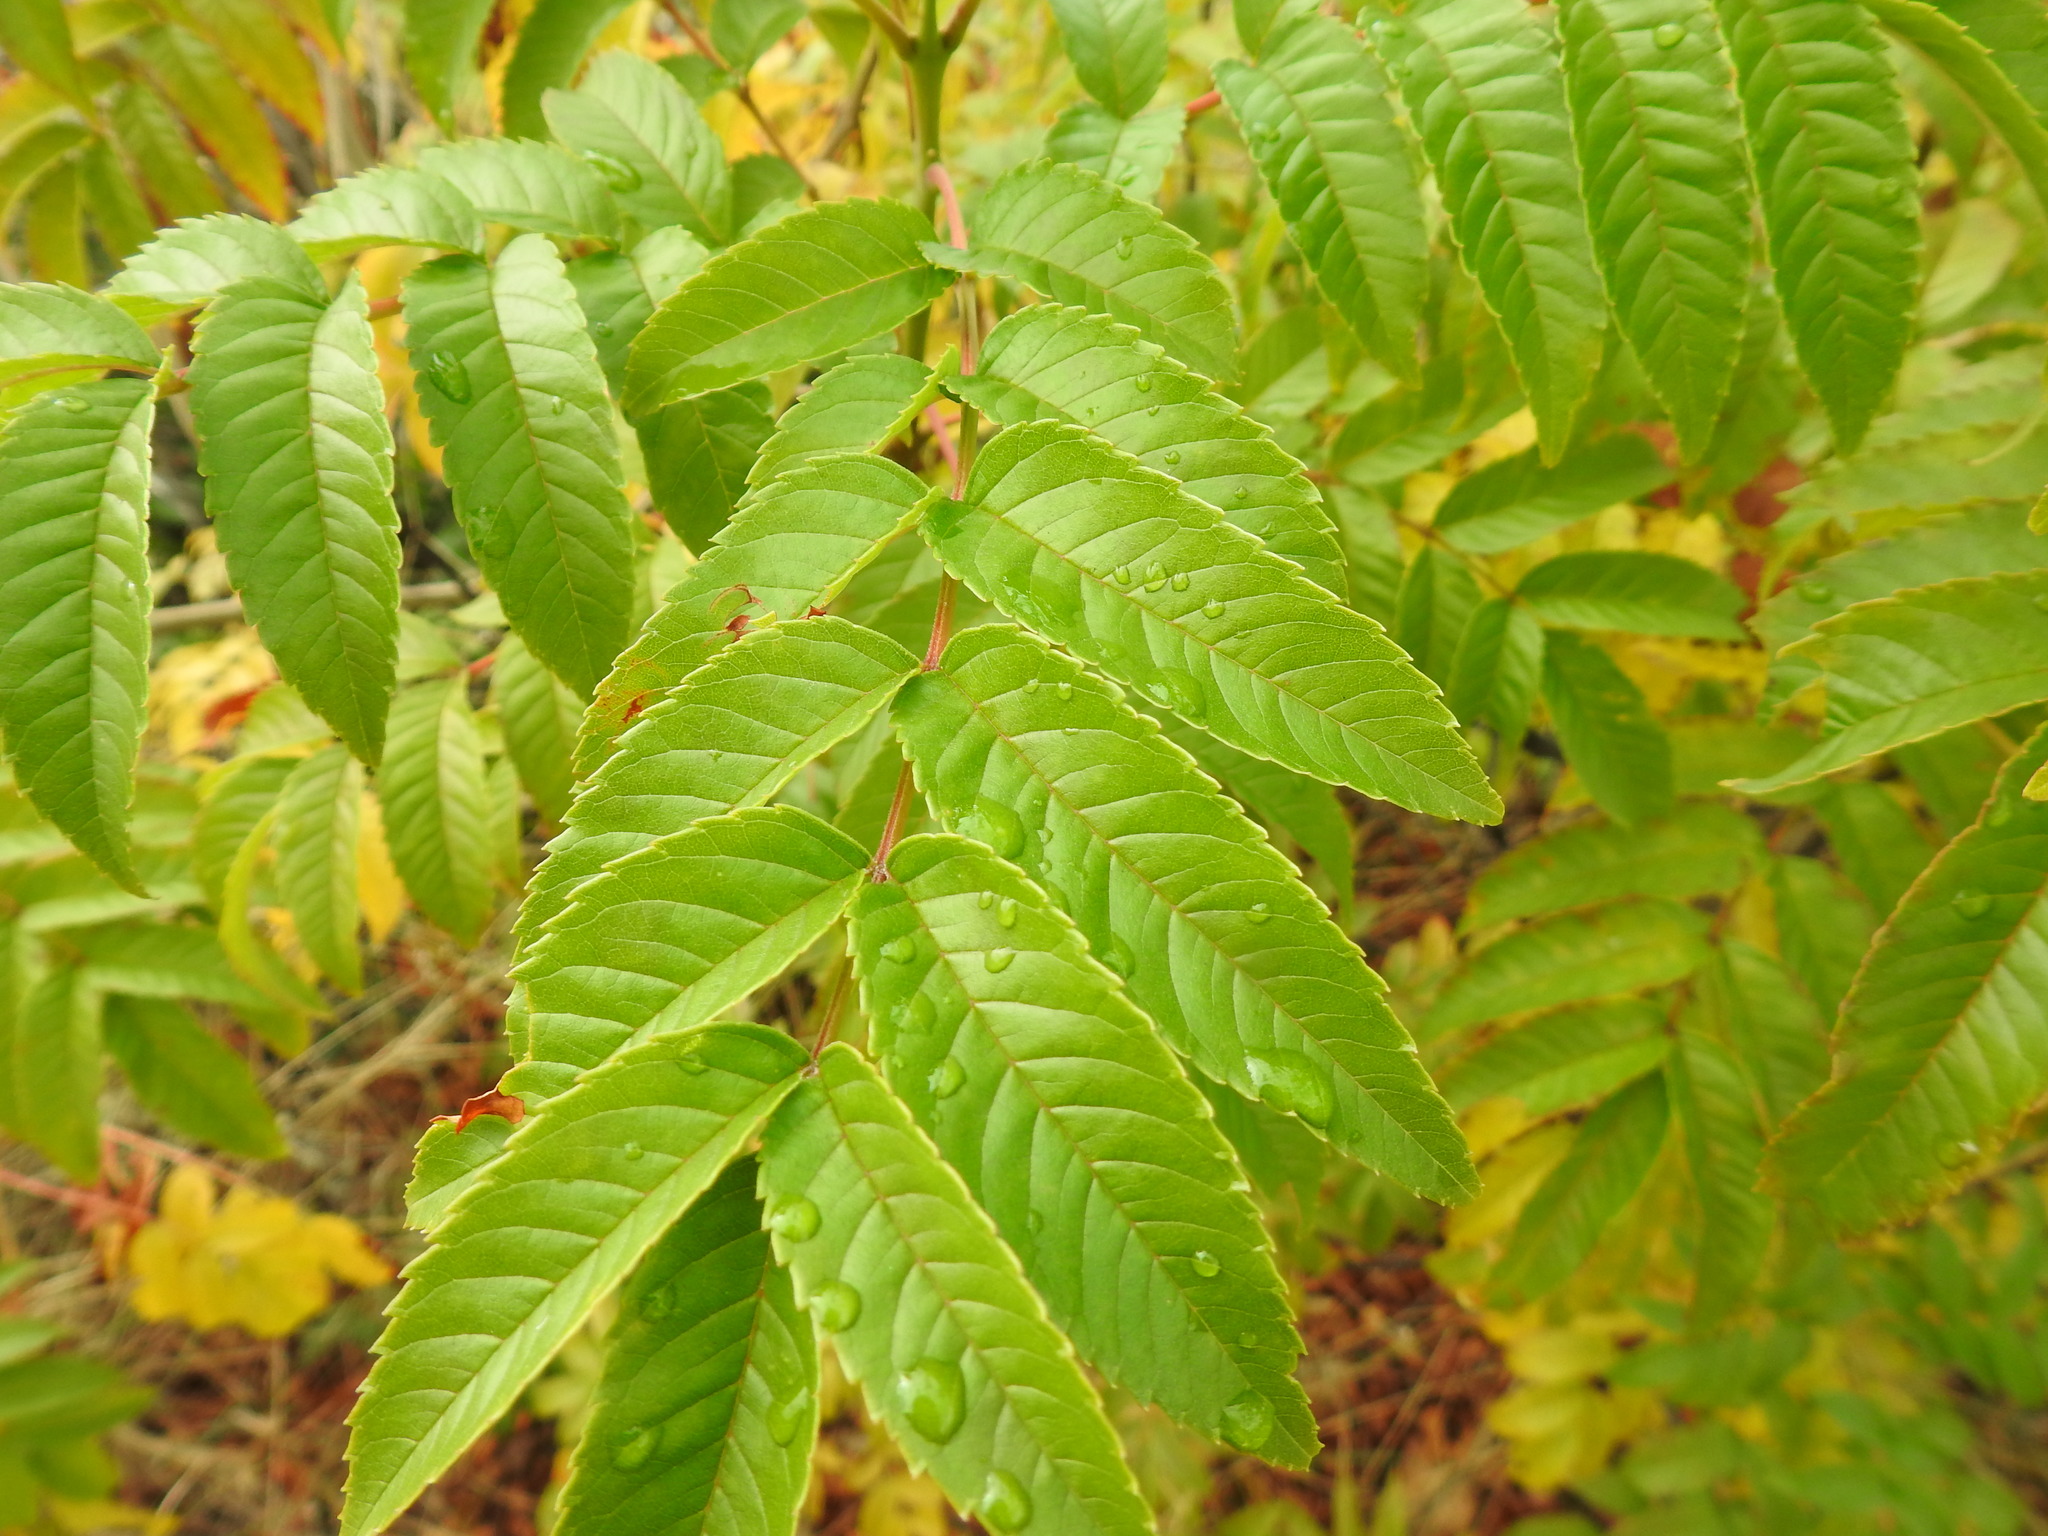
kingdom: Plantae
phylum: Tracheophyta
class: Magnoliopsida
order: Lamiales
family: Bignoniaceae
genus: Tecoma
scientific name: Tecoma stans
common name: Yellow trumpetbush
